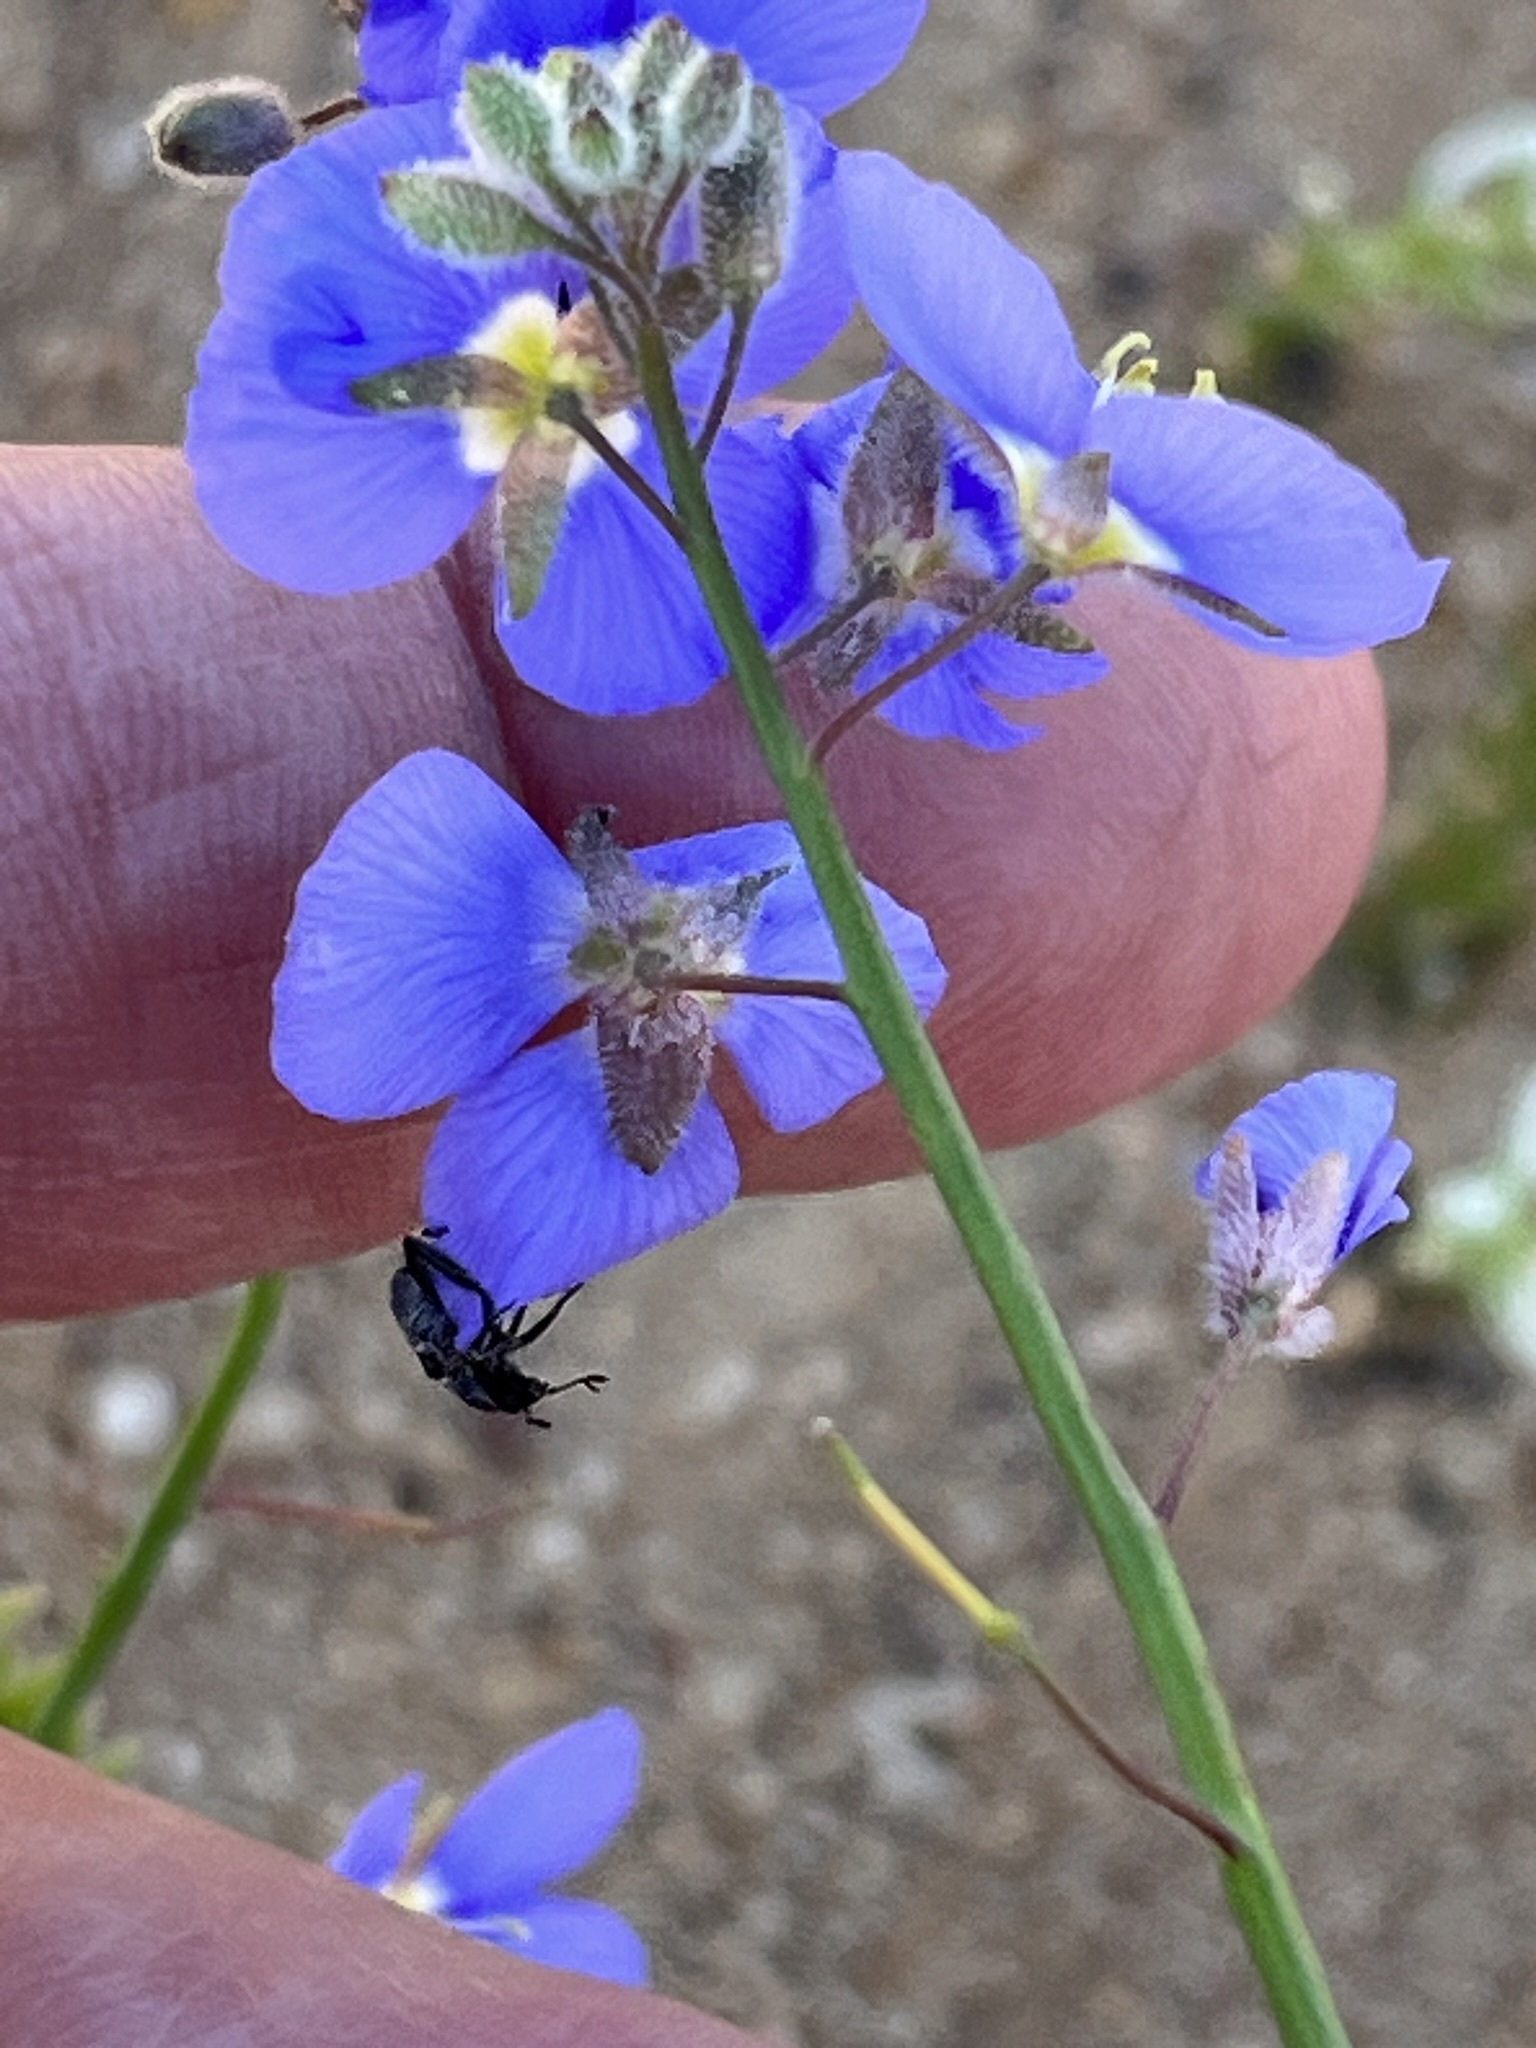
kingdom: Plantae
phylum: Tracheophyta
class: Magnoliopsida
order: Brassicales
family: Brassicaceae
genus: Heliophila
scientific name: Heliophila arenaria
